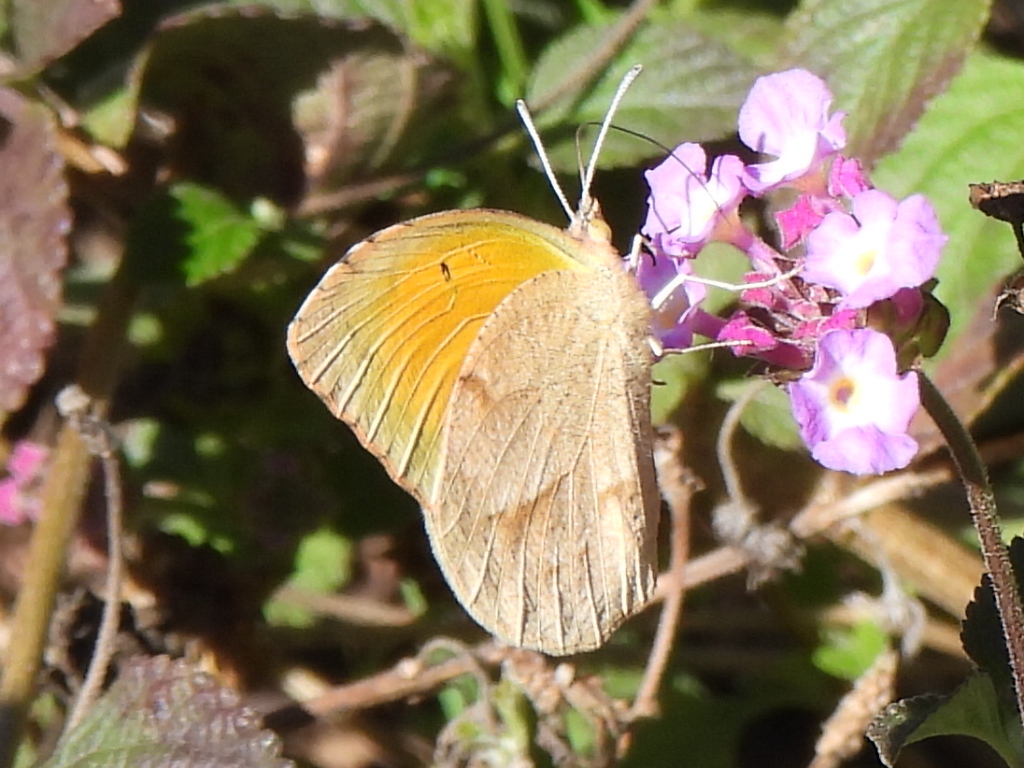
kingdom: Animalia
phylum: Arthropoda
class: Insecta
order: Lepidoptera
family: Pieridae
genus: Abaeis
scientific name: Abaeis nicippe
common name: Sleepy orange
